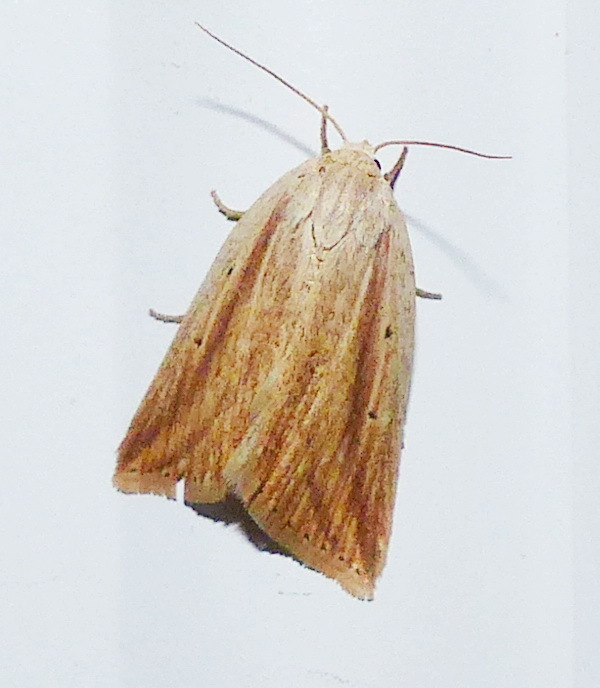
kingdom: Animalia
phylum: Arthropoda
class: Insecta
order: Lepidoptera
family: Noctuidae
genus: Amolita
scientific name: Amolita fessa
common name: Feeble grass moth
